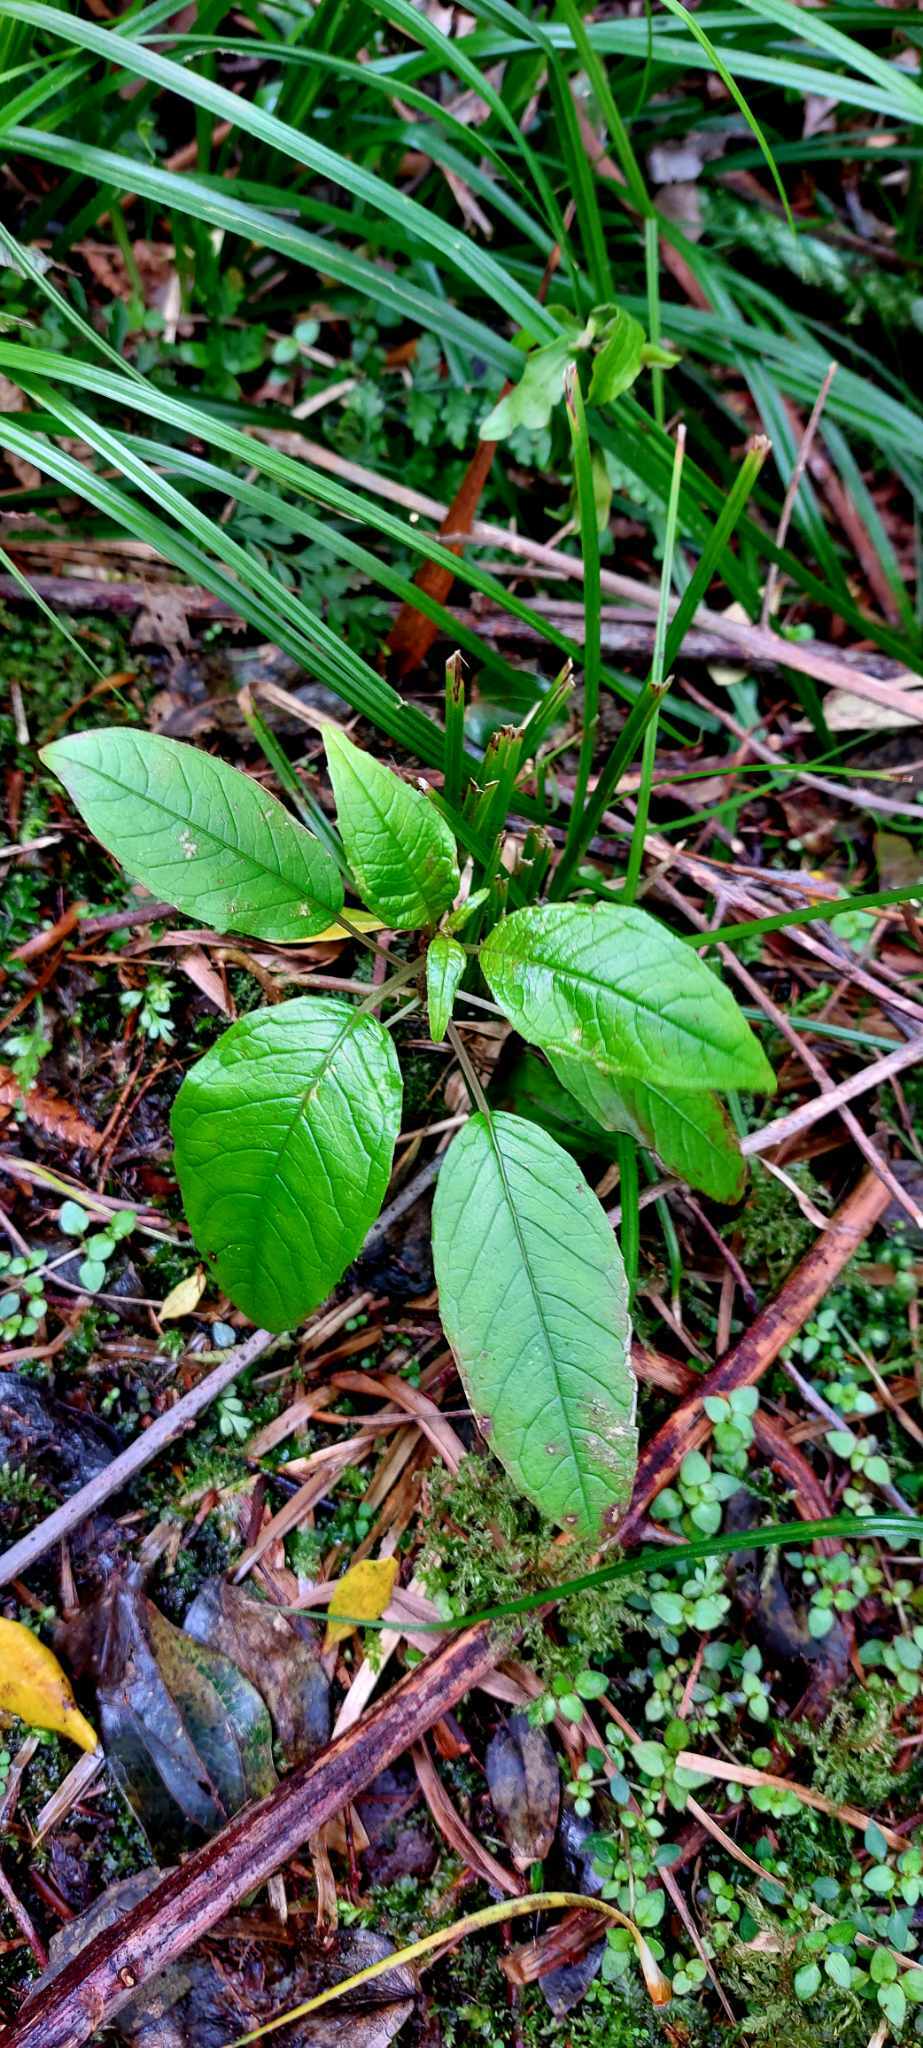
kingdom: Plantae
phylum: Tracheophyta
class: Magnoliopsida
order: Myrtales
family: Onagraceae
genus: Fuchsia
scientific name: Fuchsia excorticata
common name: Tree fuchsia
